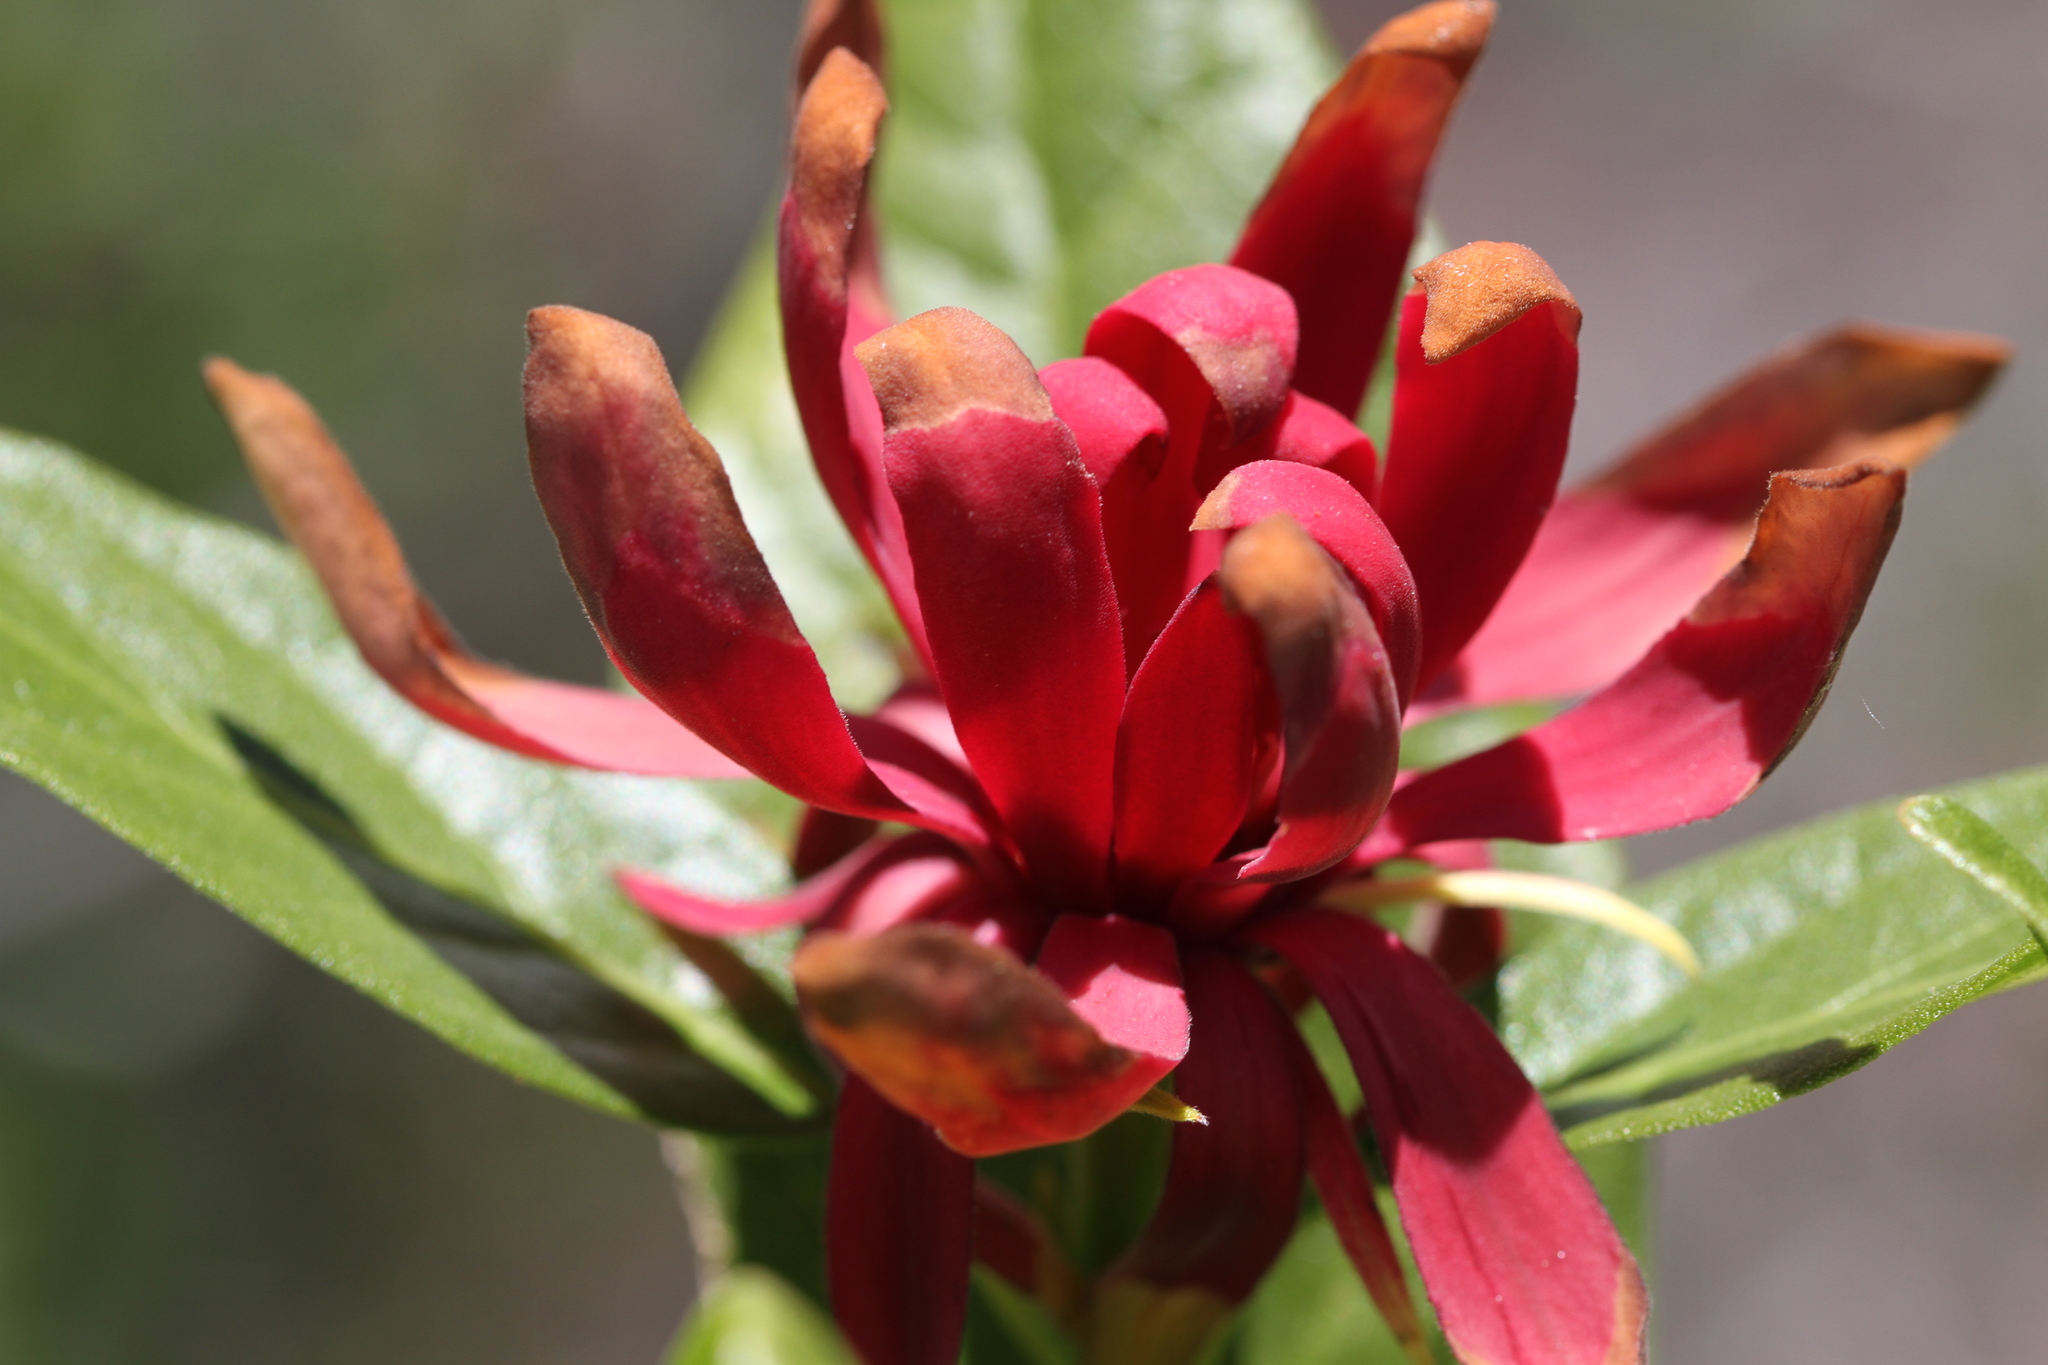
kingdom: Plantae
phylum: Tracheophyta
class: Magnoliopsida
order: Laurales
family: Calycanthaceae
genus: Calycanthus
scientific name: Calycanthus occidentalis
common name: California spicebush
